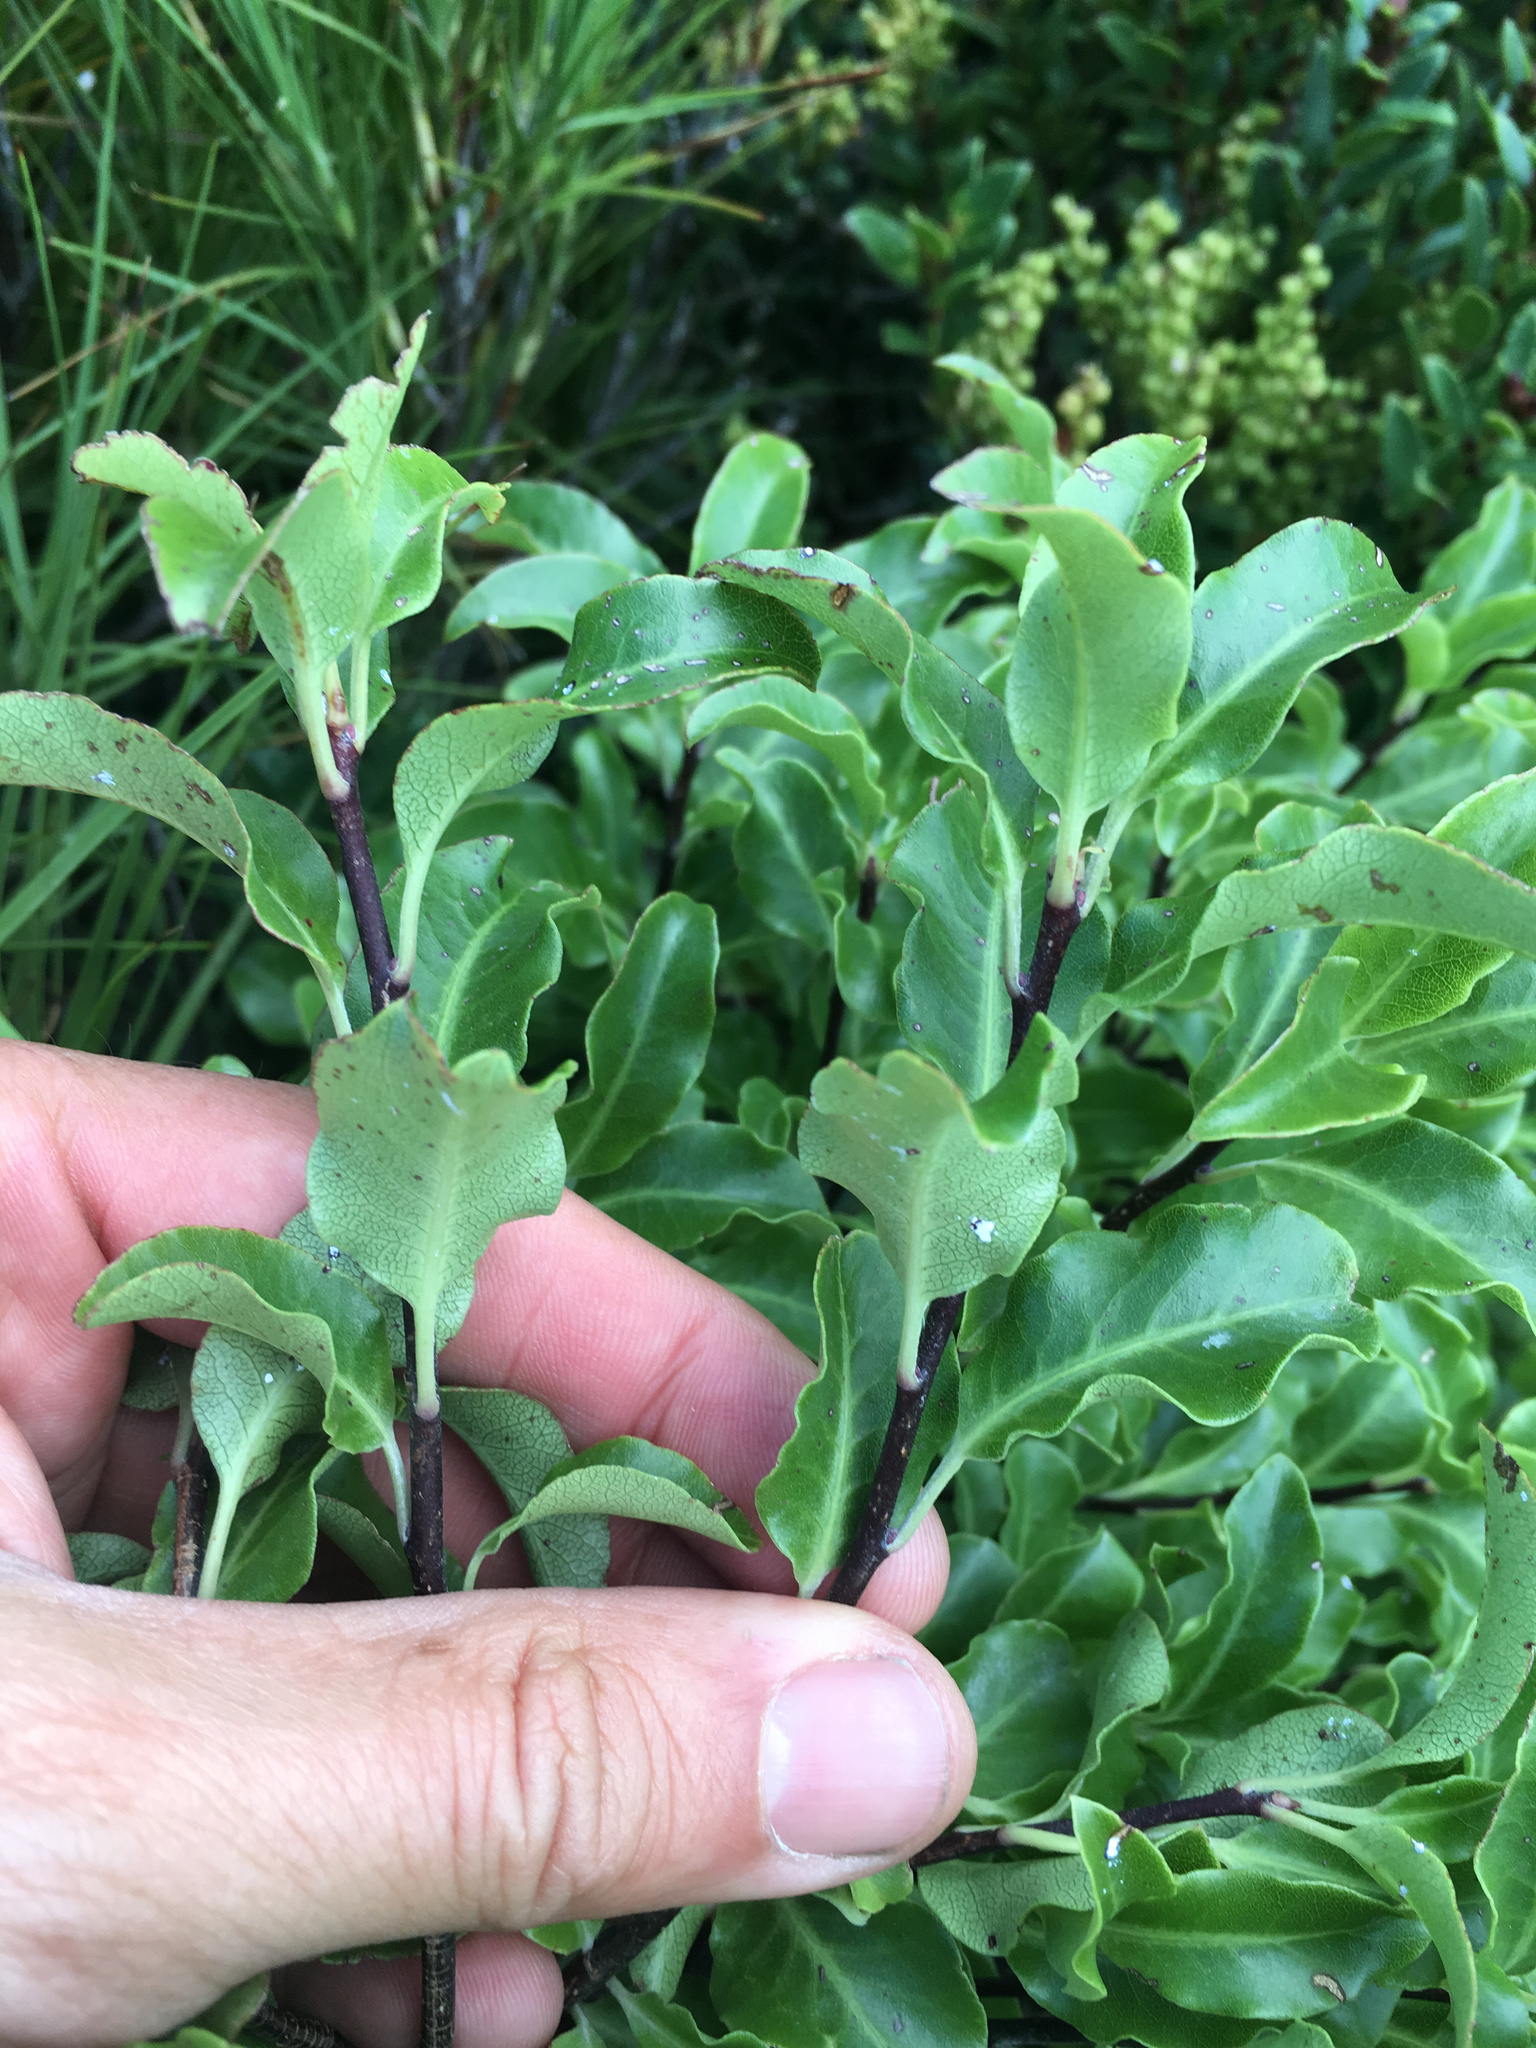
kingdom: Plantae
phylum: Tracheophyta
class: Magnoliopsida
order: Apiales
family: Pittosporaceae
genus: Pittosporum
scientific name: Pittosporum tenuifolium
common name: Kohuhu
